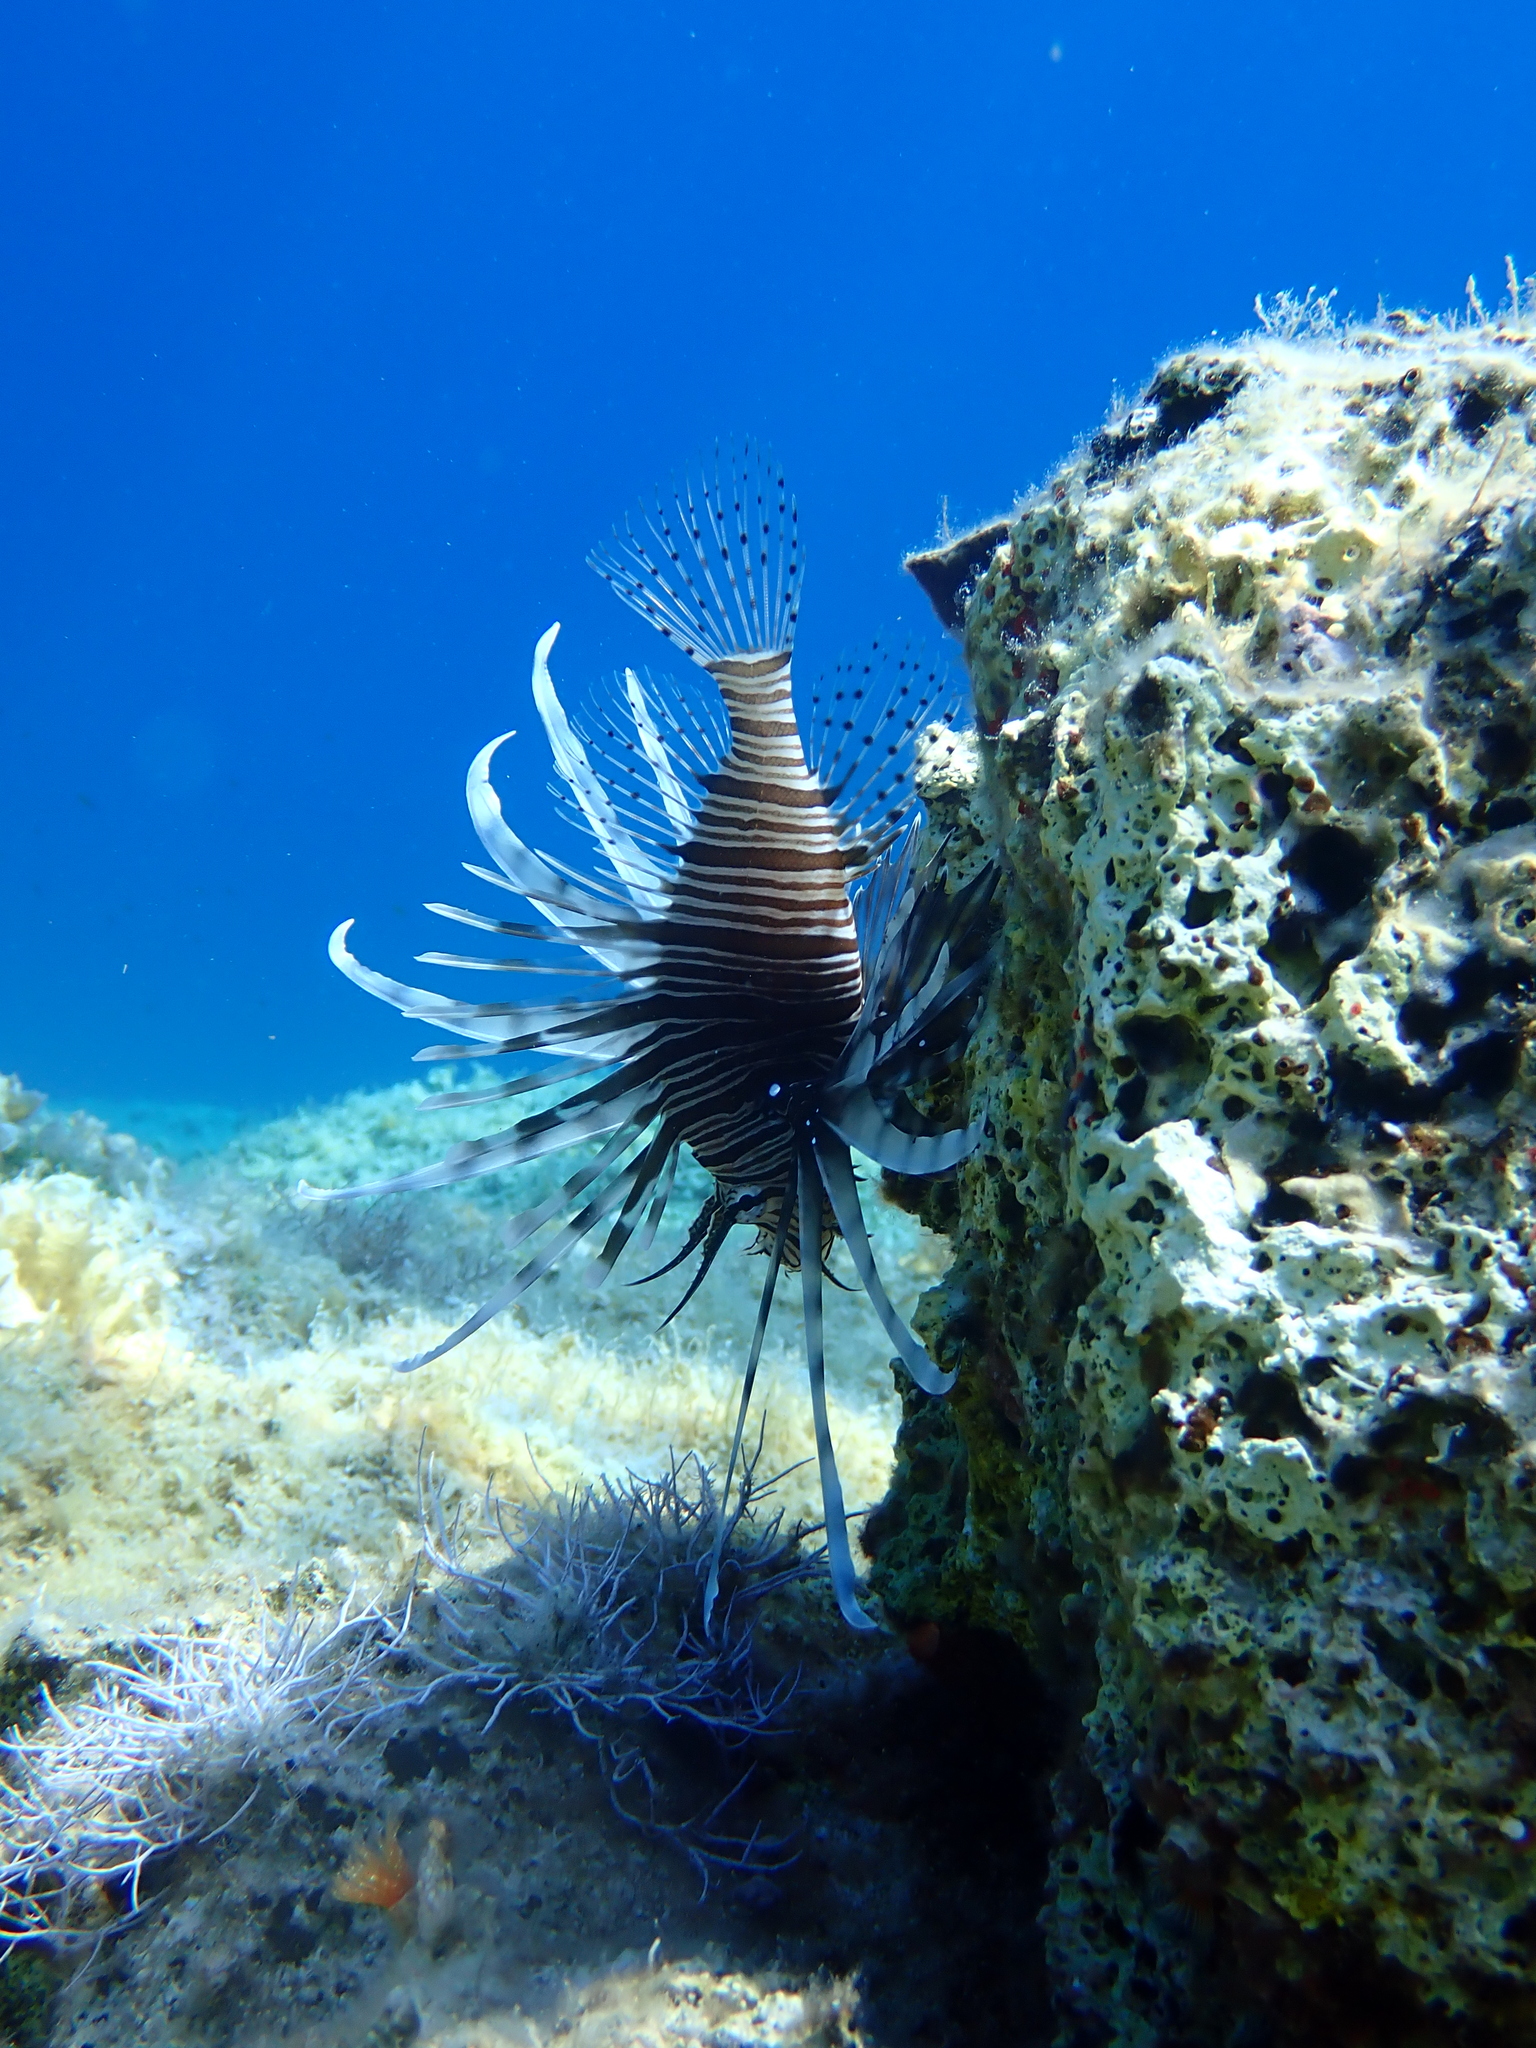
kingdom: Animalia
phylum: Chordata
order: Scorpaeniformes
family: Scorpaenidae
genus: Pterois
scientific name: Pterois miles
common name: Devil firefish
